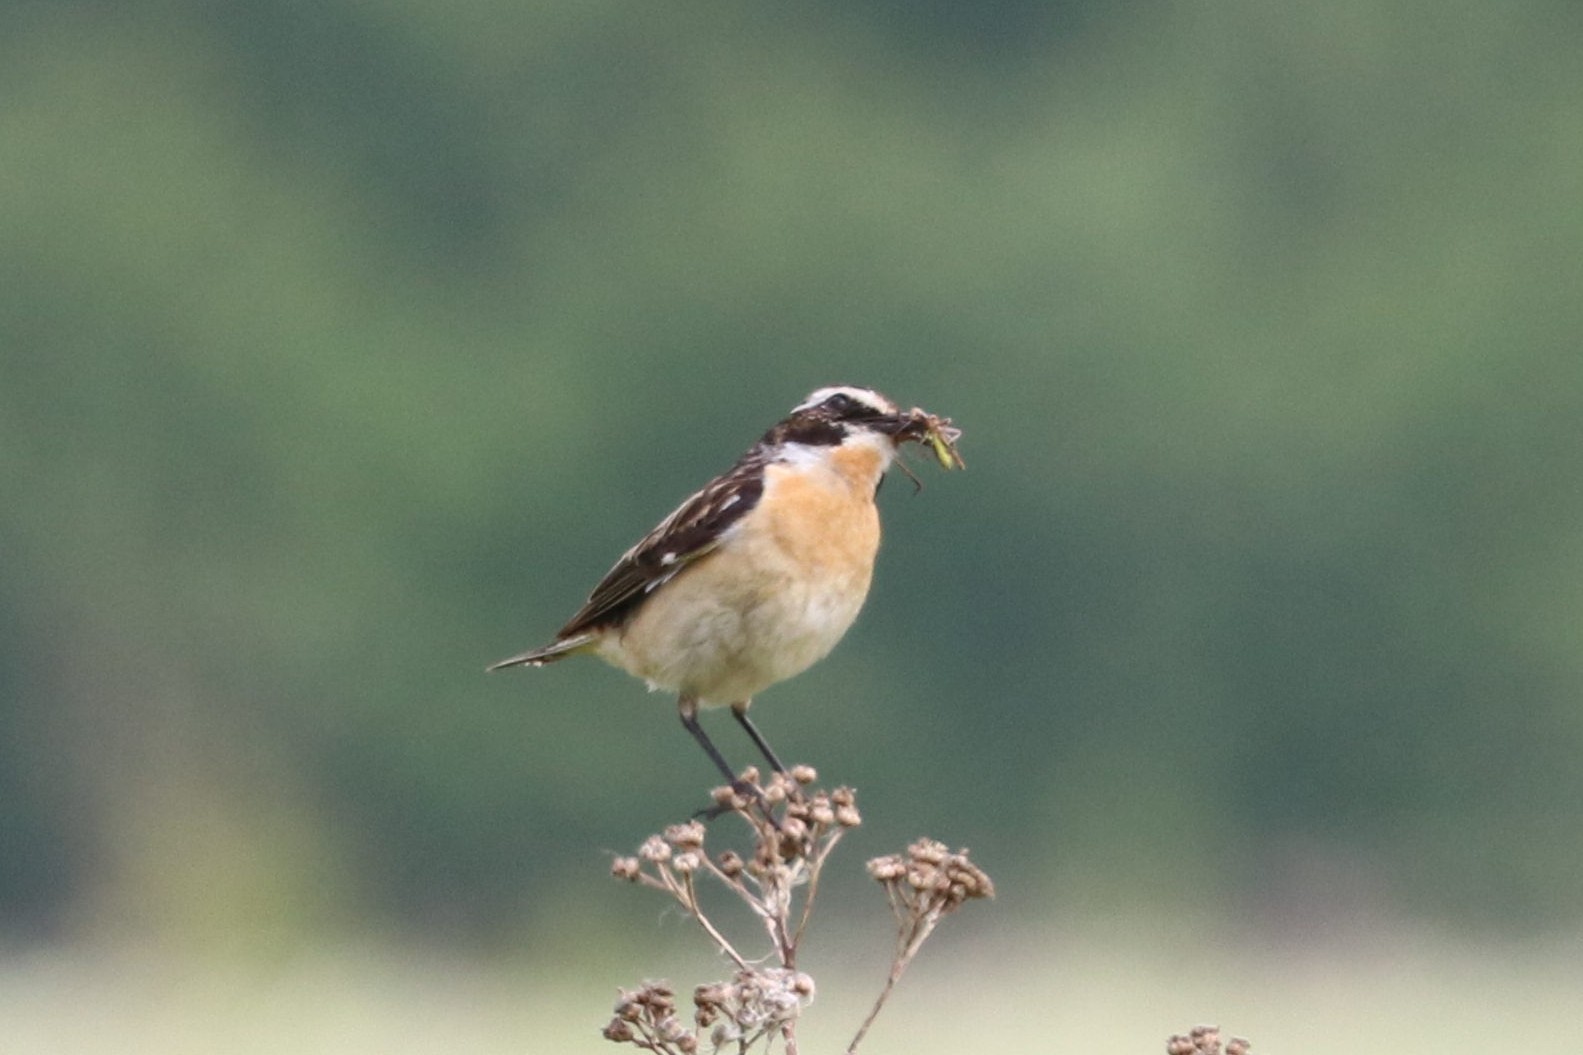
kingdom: Animalia
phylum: Chordata
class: Aves
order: Passeriformes
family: Muscicapidae
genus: Saxicola
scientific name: Saxicola rubetra
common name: Whinchat
